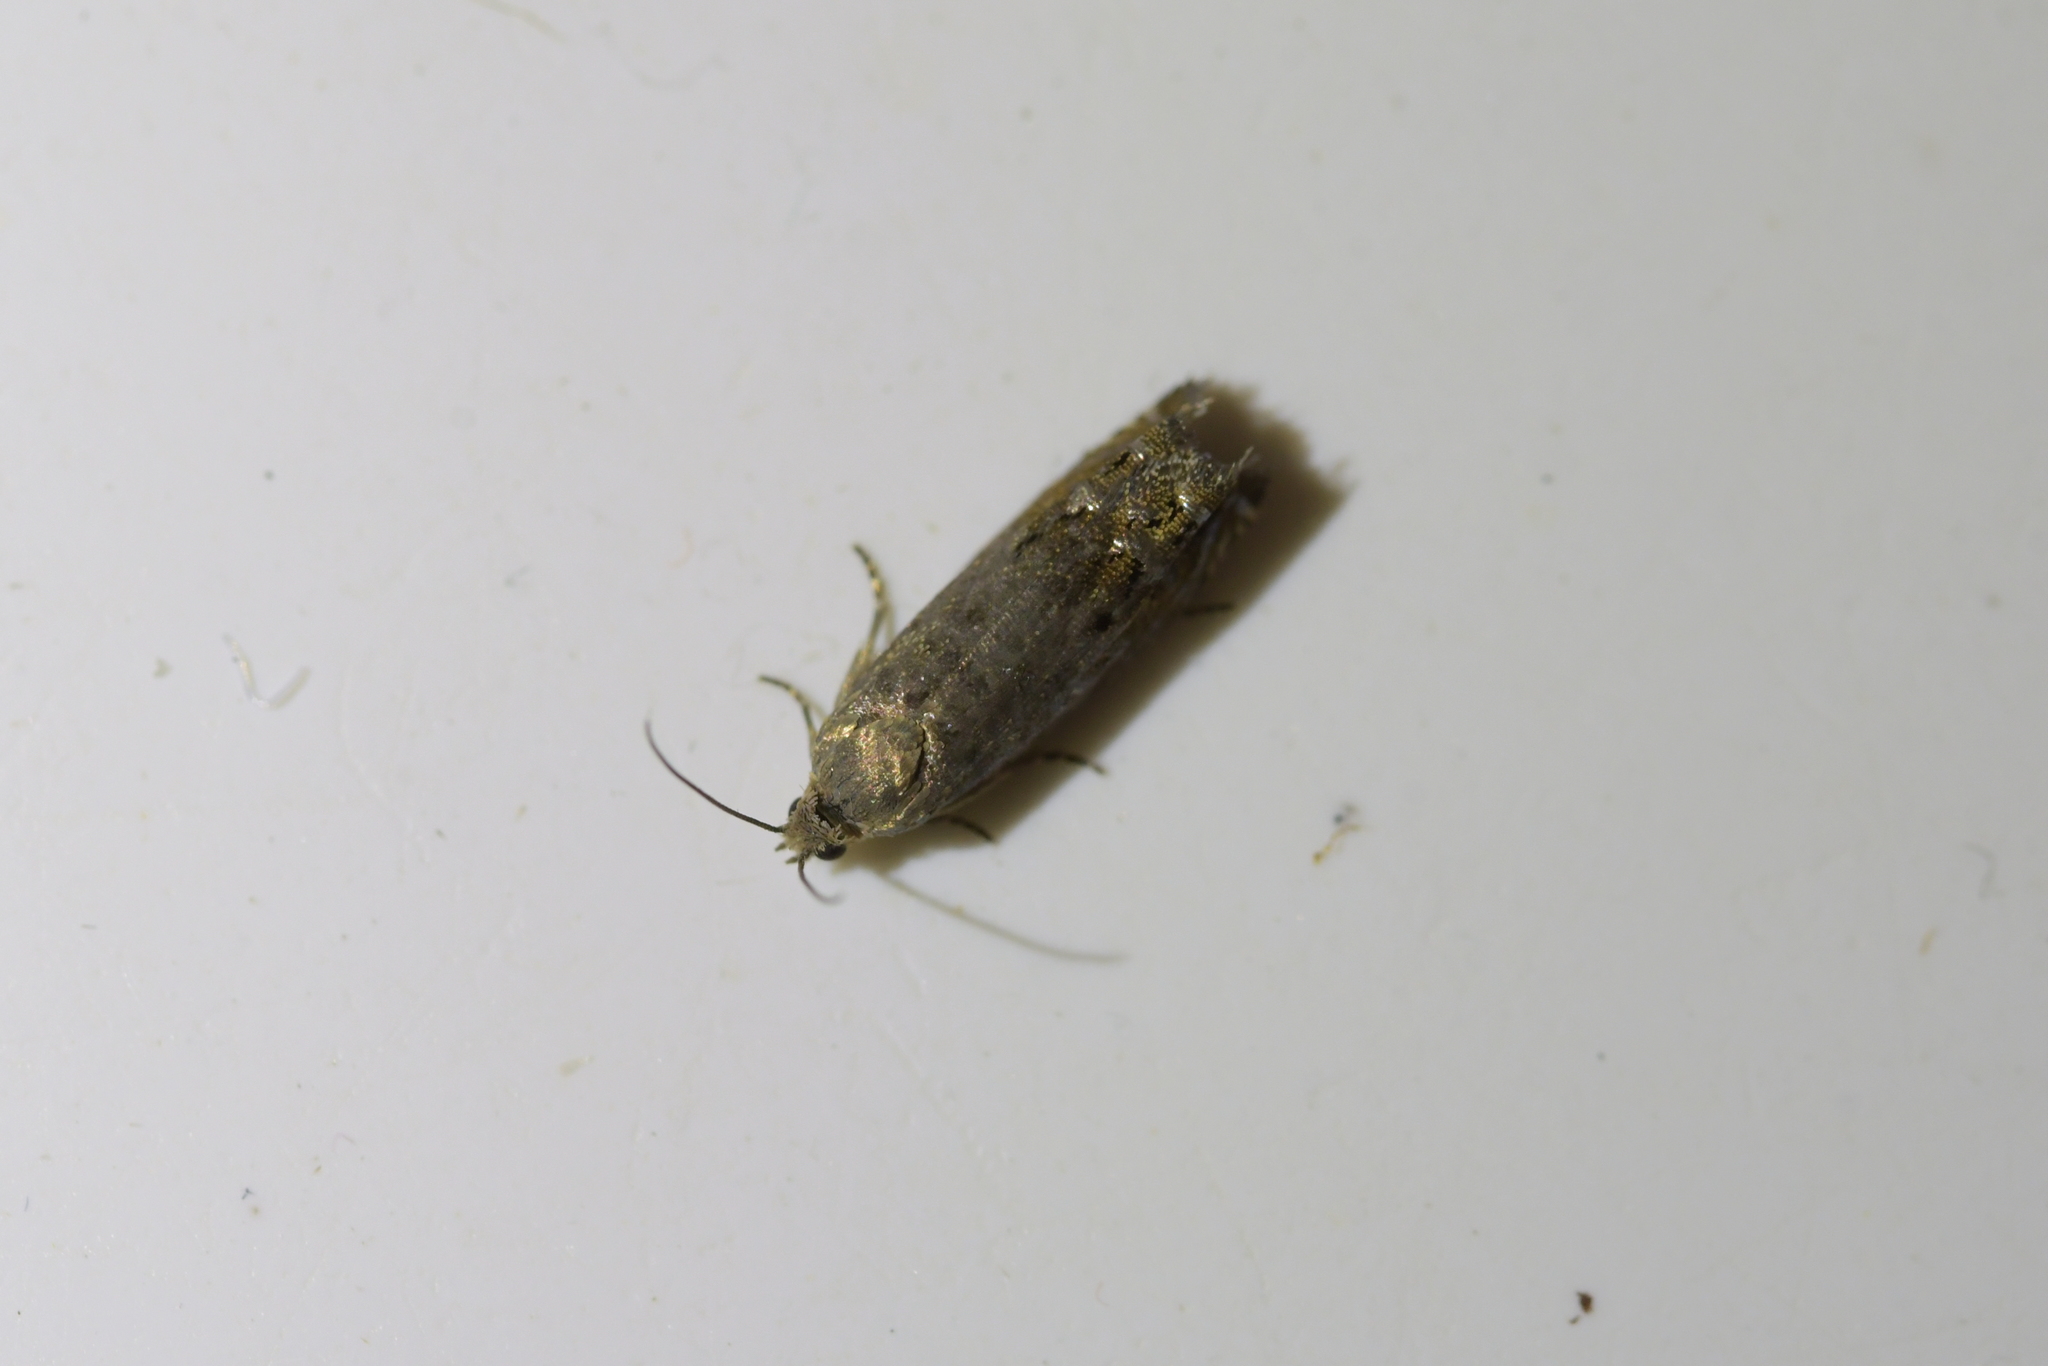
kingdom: Animalia
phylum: Arthropoda
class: Insecta
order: Lepidoptera
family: Tortricidae
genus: Cydia
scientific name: Cydia succedana
